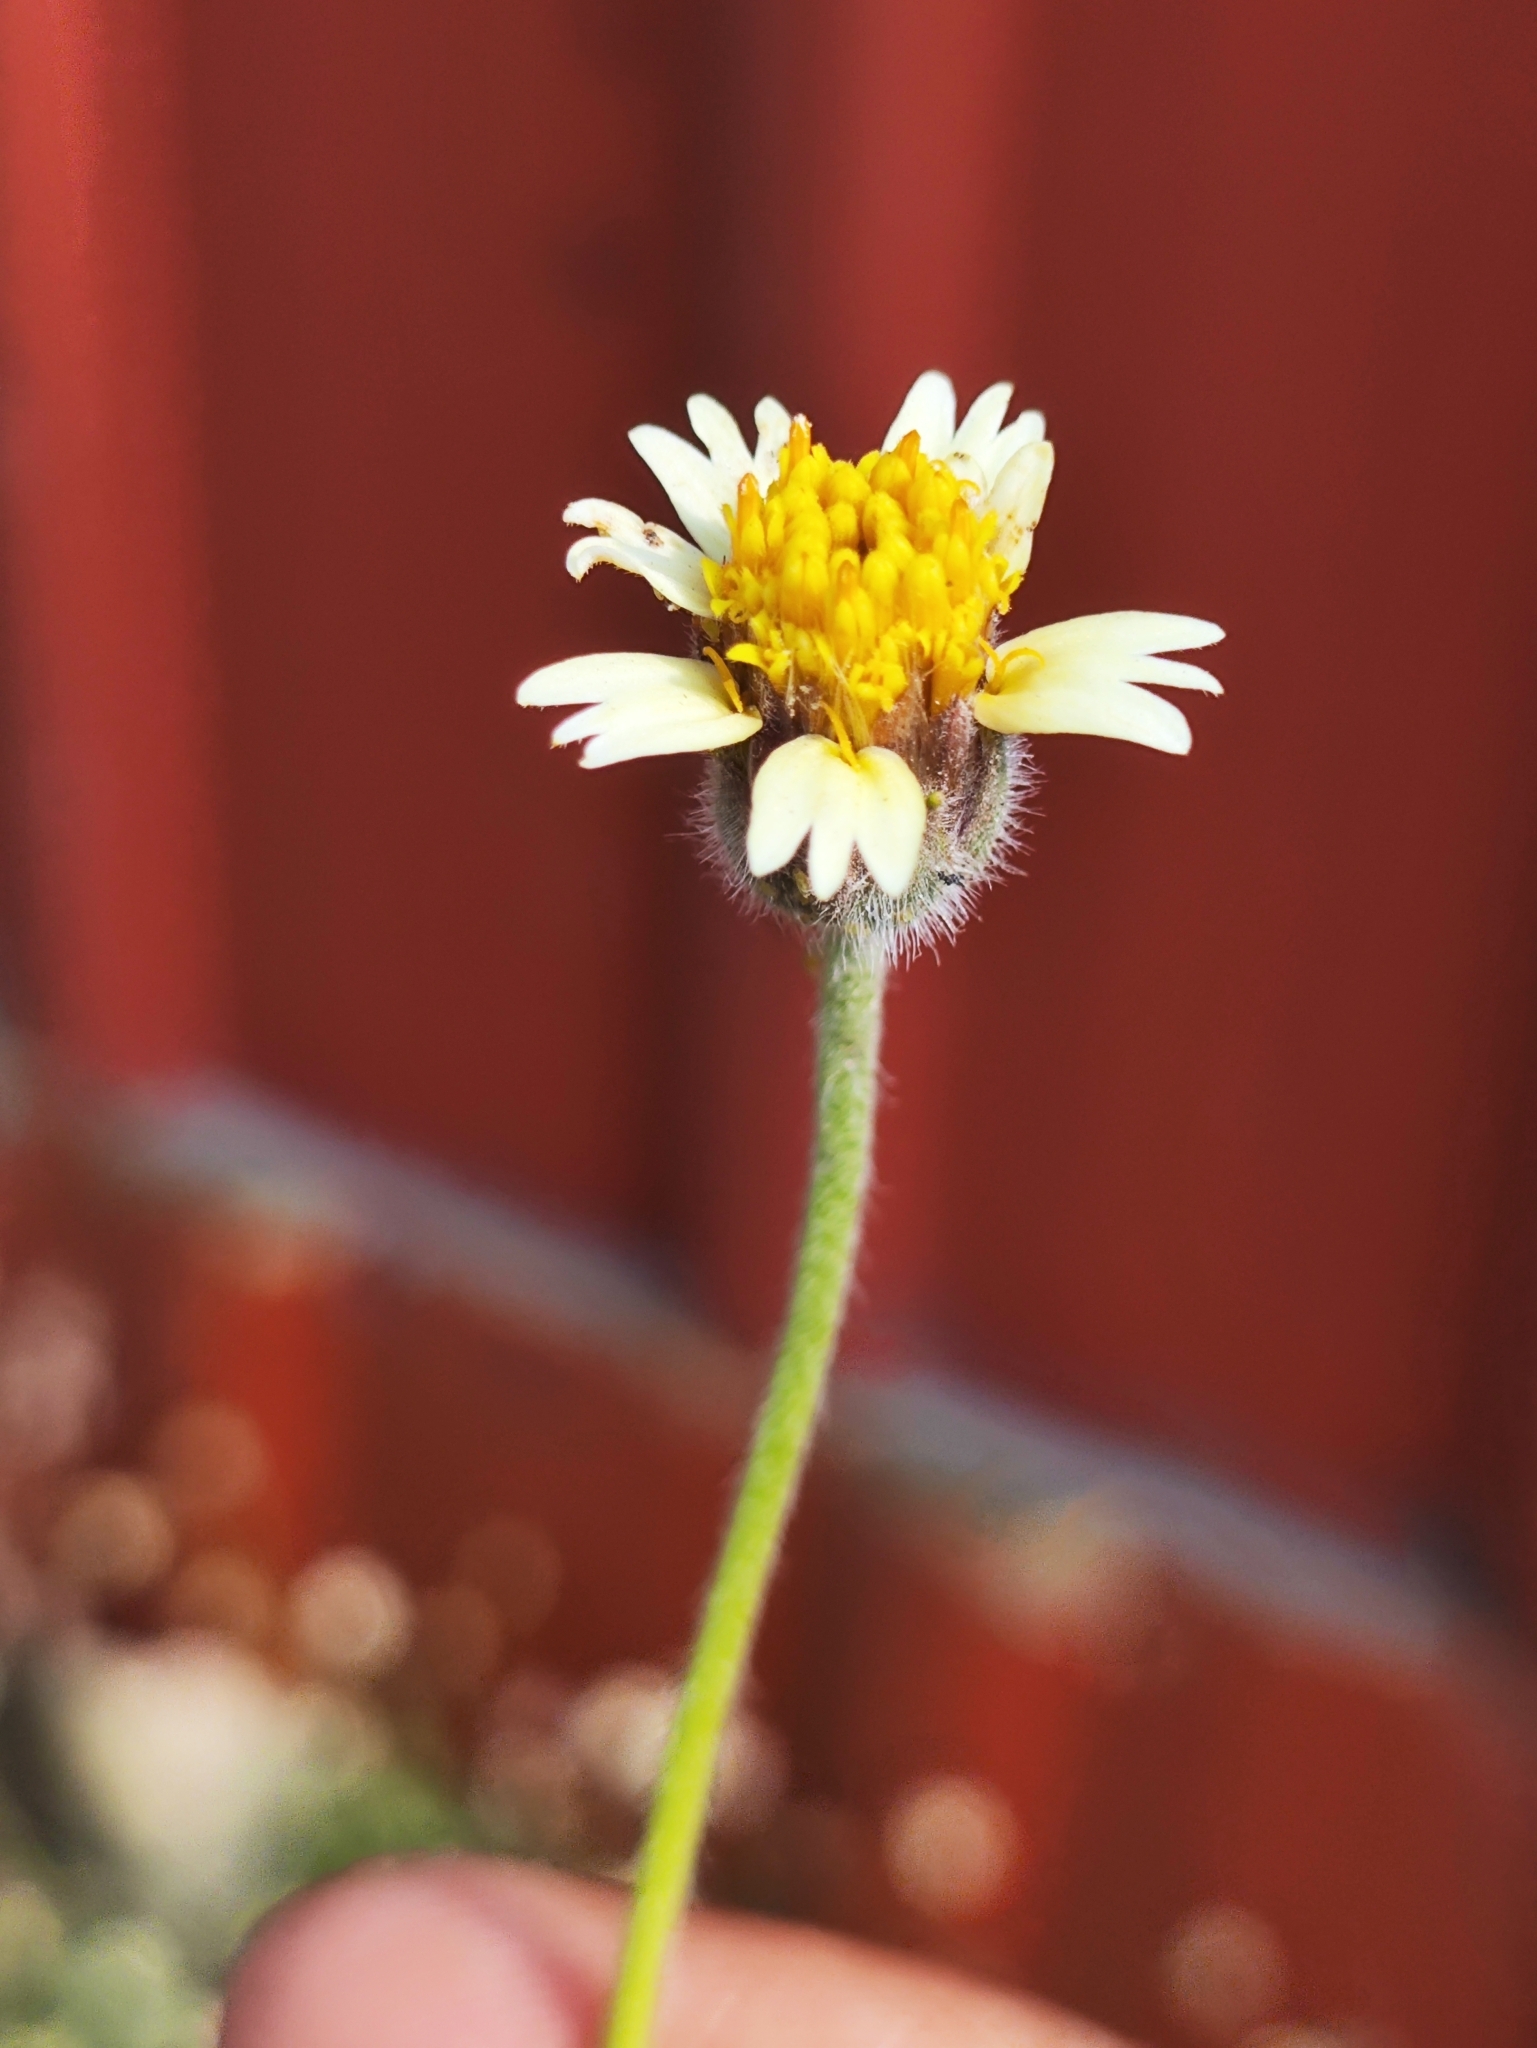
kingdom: Plantae
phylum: Tracheophyta
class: Magnoliopsida
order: Asterales
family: Asteraceae
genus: Tridax
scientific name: Tridax procumbens
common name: Coatbuttons
